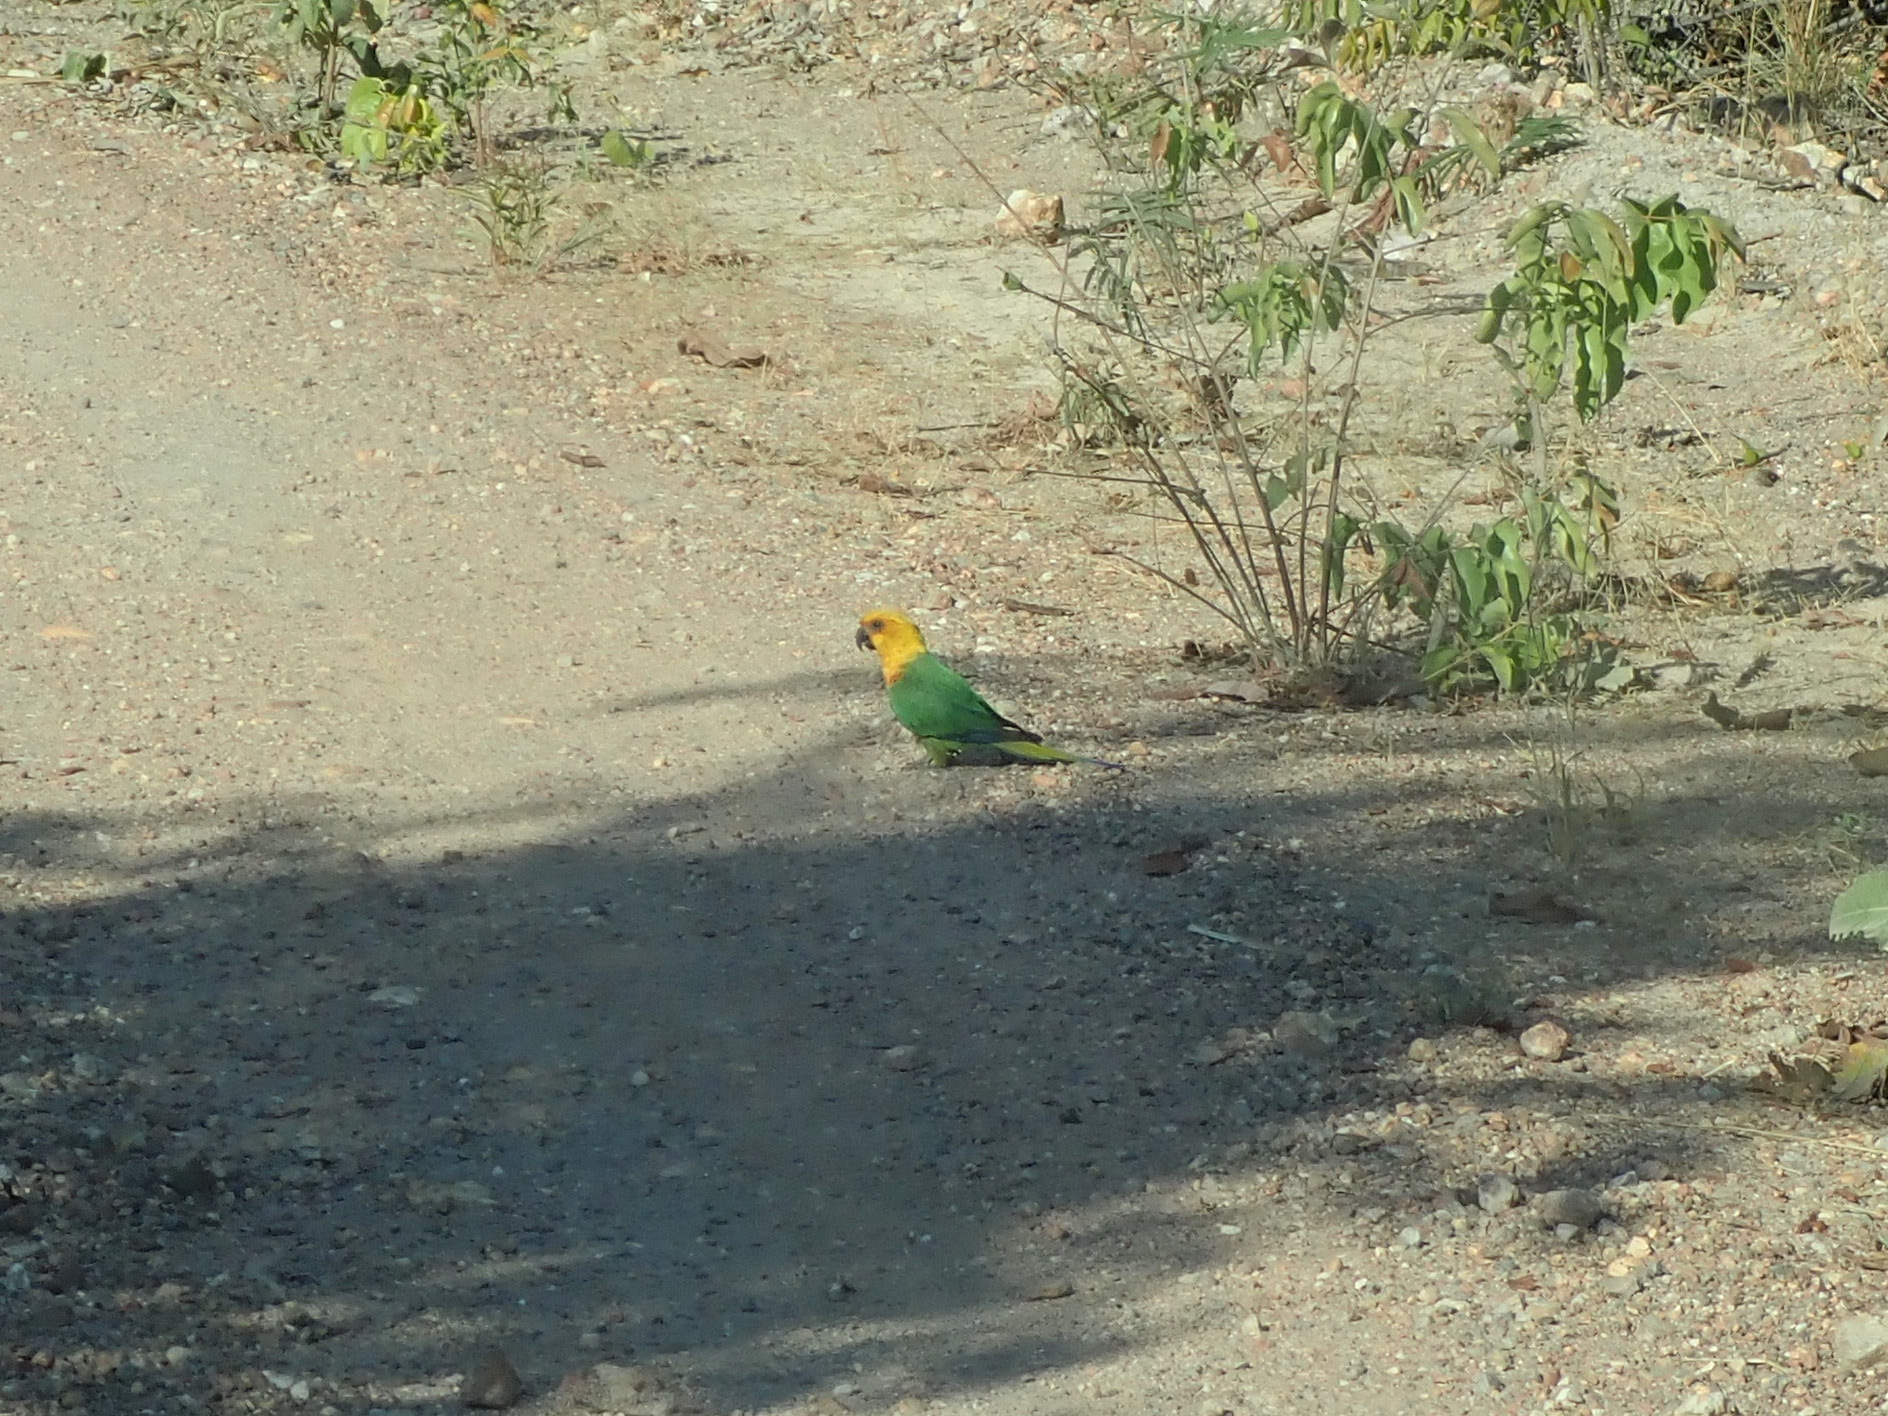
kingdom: Animalia
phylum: Chordata
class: Aves
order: Psittaciformes
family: Psittacidae
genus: Aratinga
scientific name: Aratinga jandaya
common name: Jandaya parakeet
